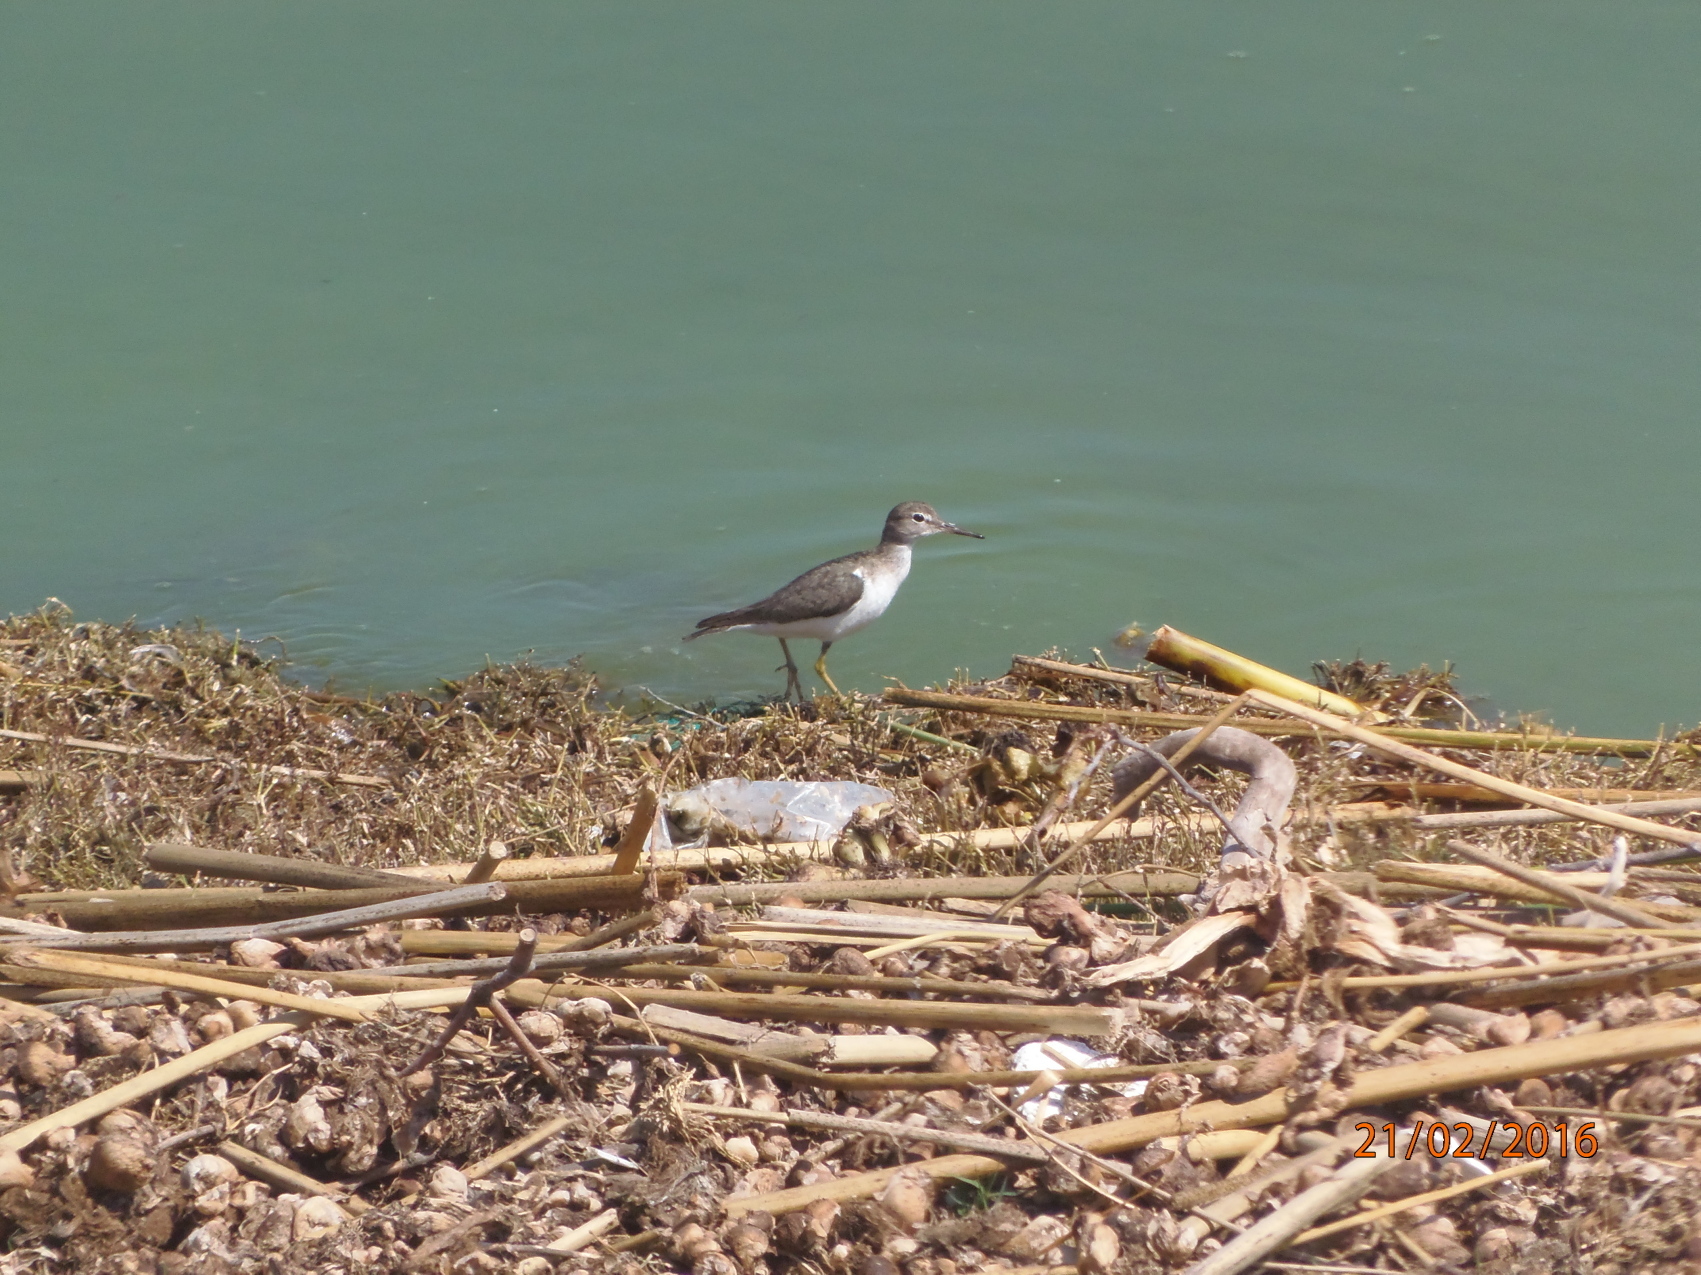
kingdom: Animalia
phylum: Chordata
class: Aves
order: Charadriiformes
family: Scolopacidae
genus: Actitis
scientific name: Actitis macularius
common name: Spotted sandpiper
